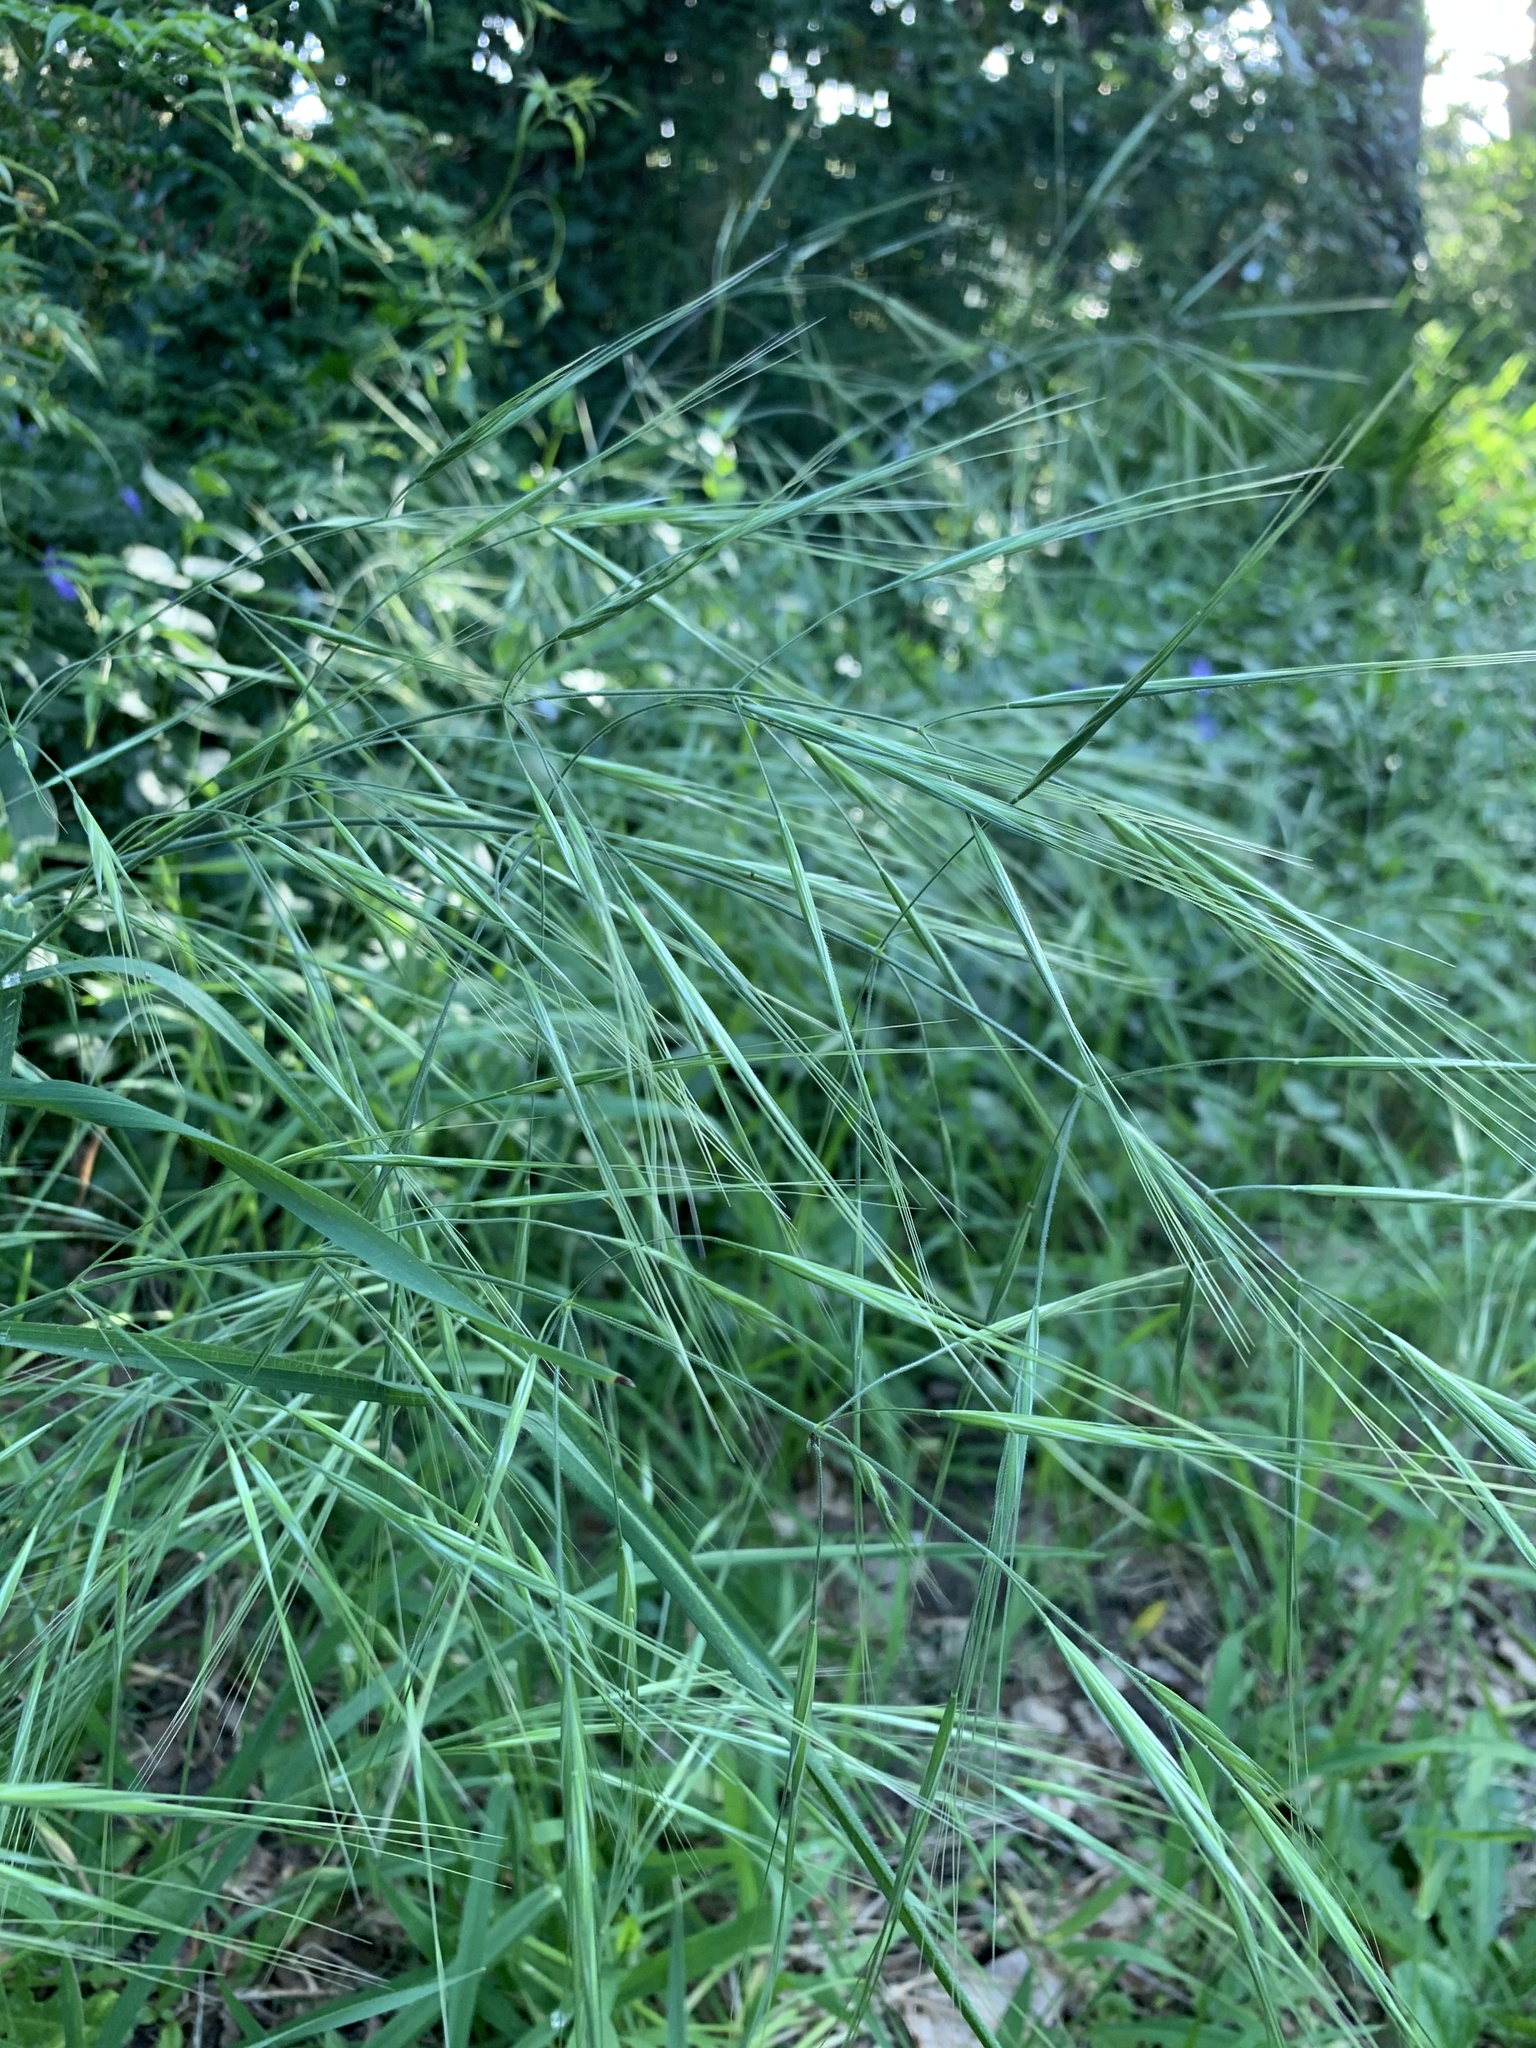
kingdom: Plantae
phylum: Tracheophyta
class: Liliopsida
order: Poales
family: Poaceae
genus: Bromus
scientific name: Bromus diandrus
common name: Ripgut brome
